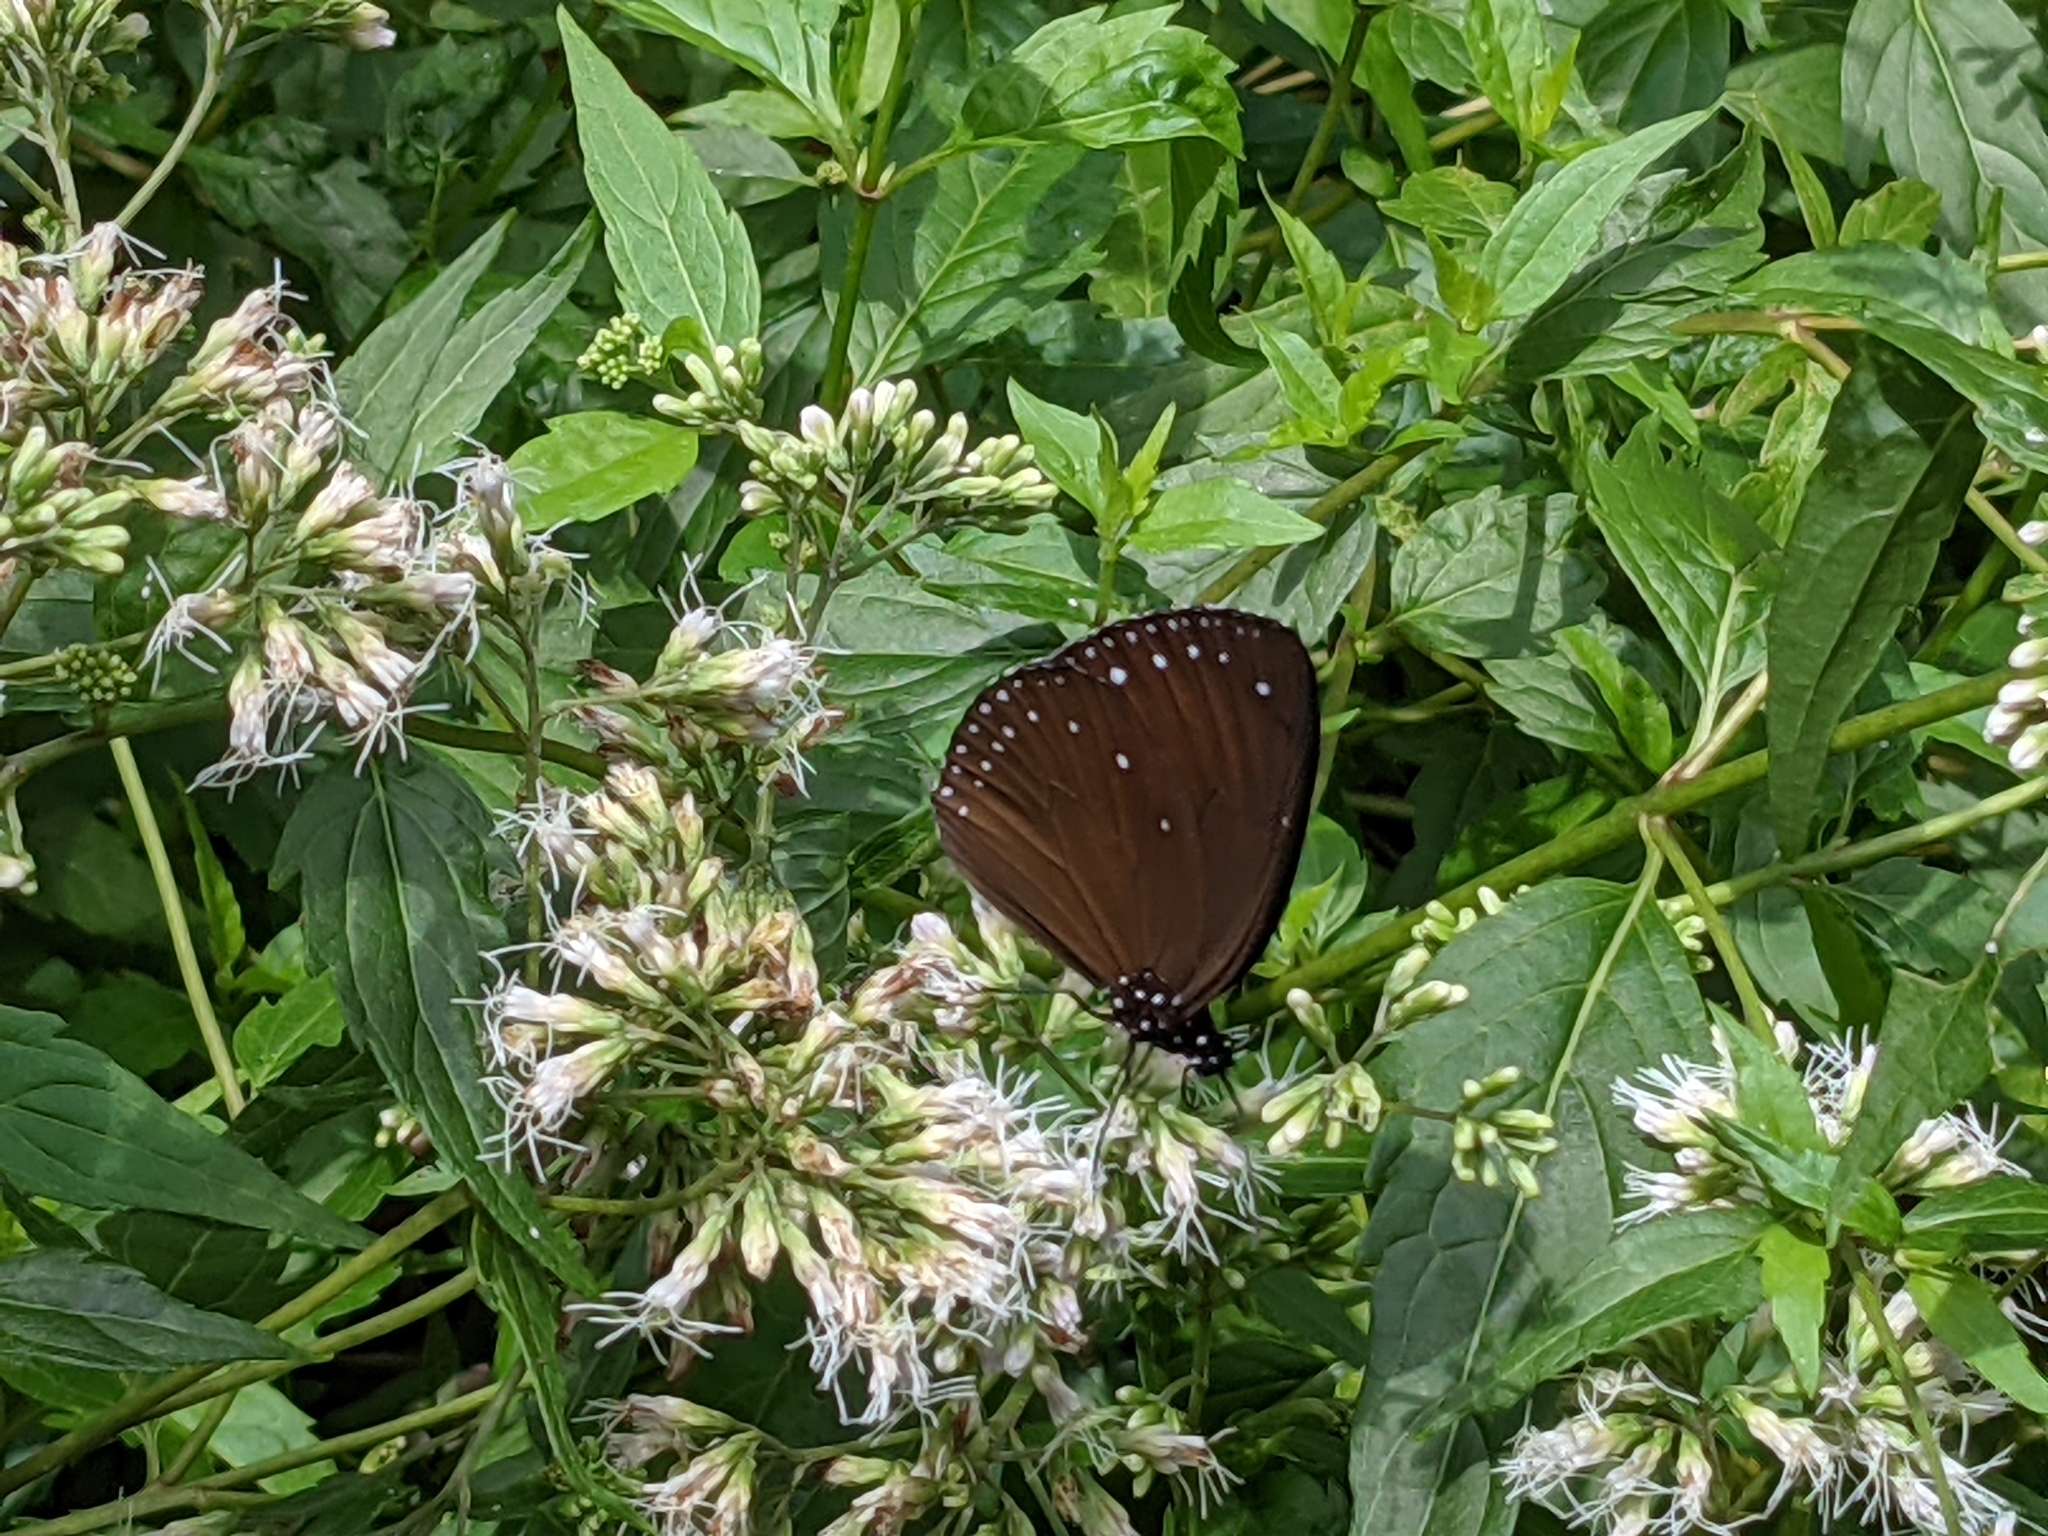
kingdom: Animalia
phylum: Arthropoda
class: Insecta
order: Lepidoptera
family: Nymphalidae
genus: Euploea
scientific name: Euploea tulliolus
